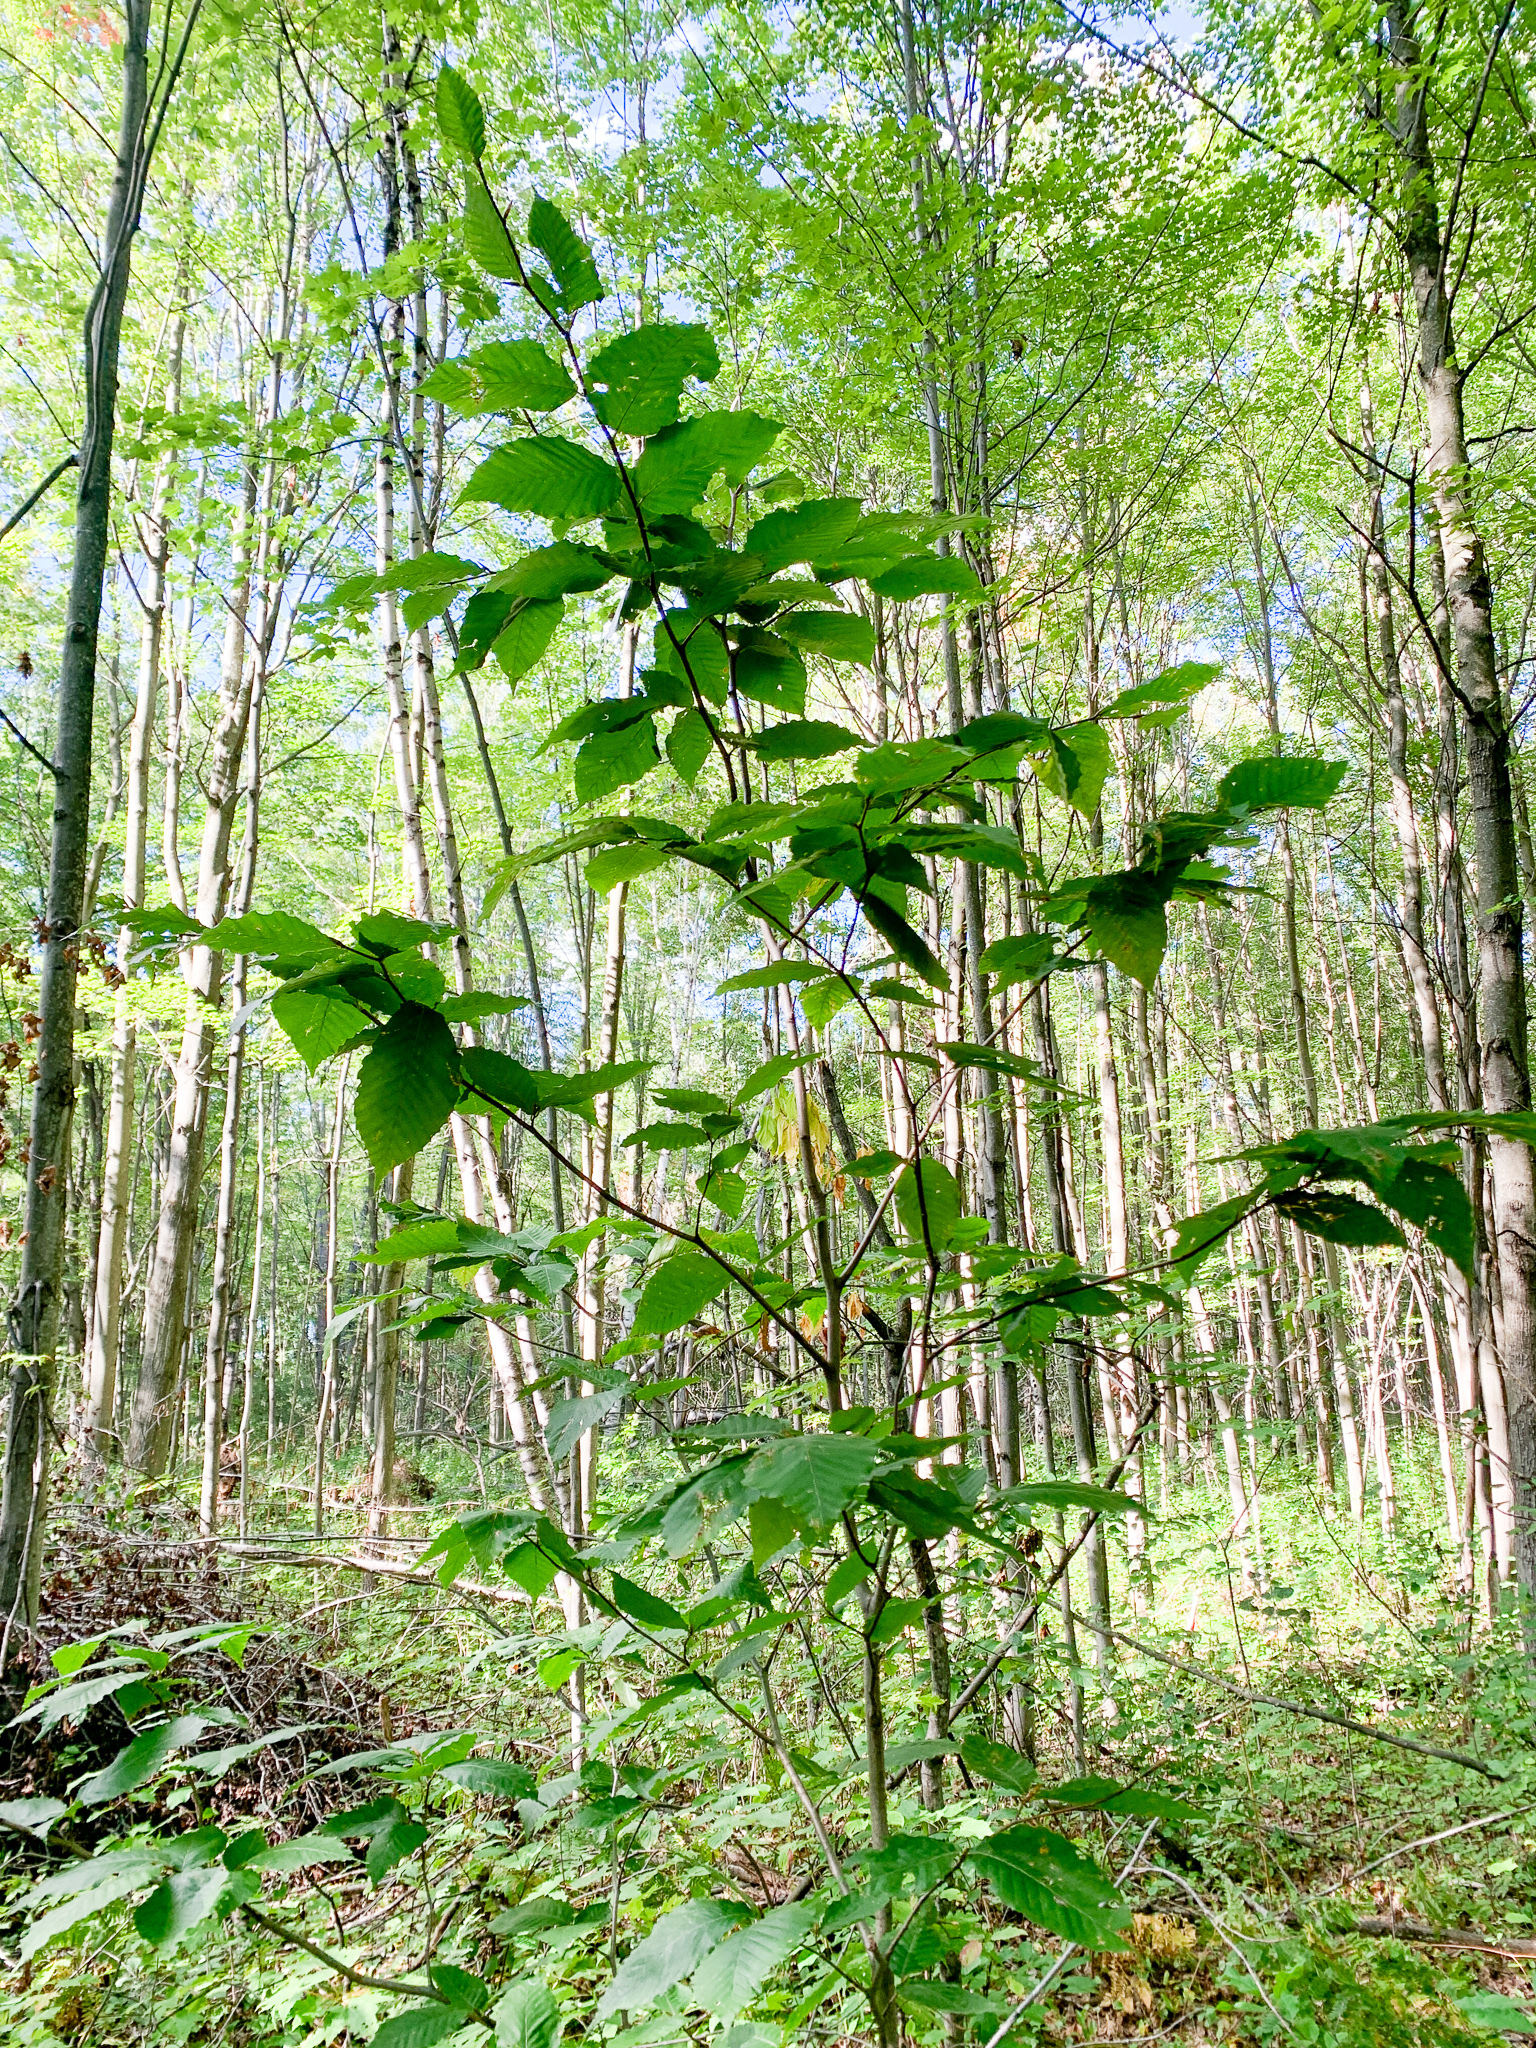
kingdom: Plantae
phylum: Tracheophyta
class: Magnoliopsida
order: Fagales
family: Fagaceae
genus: Fagus
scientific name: Fagus grandifolia
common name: American beech
